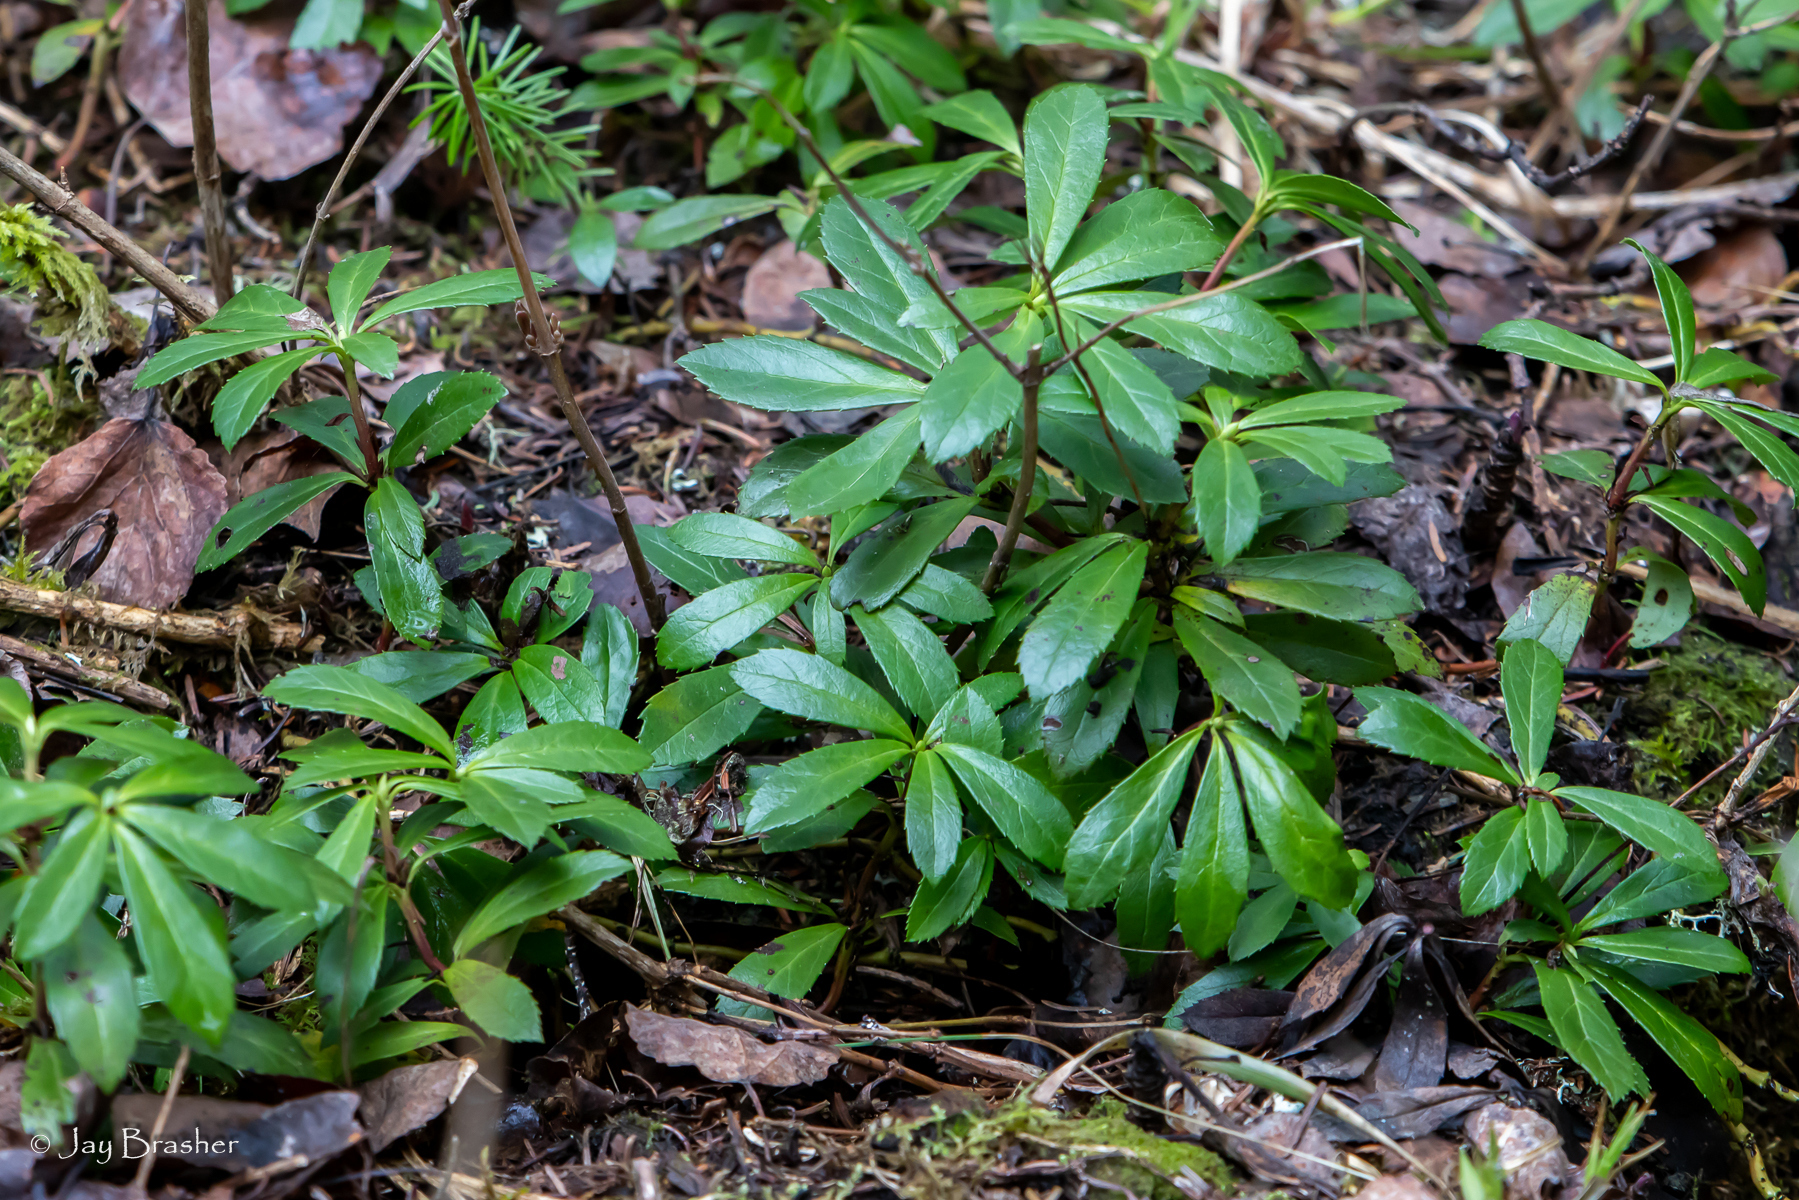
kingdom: Plantae
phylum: Tracheophyta
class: Magnoliopsida
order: Ericales
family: Ericaceae
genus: Chimaphila
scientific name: Chimaphila umbellata
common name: Pipsissewa
